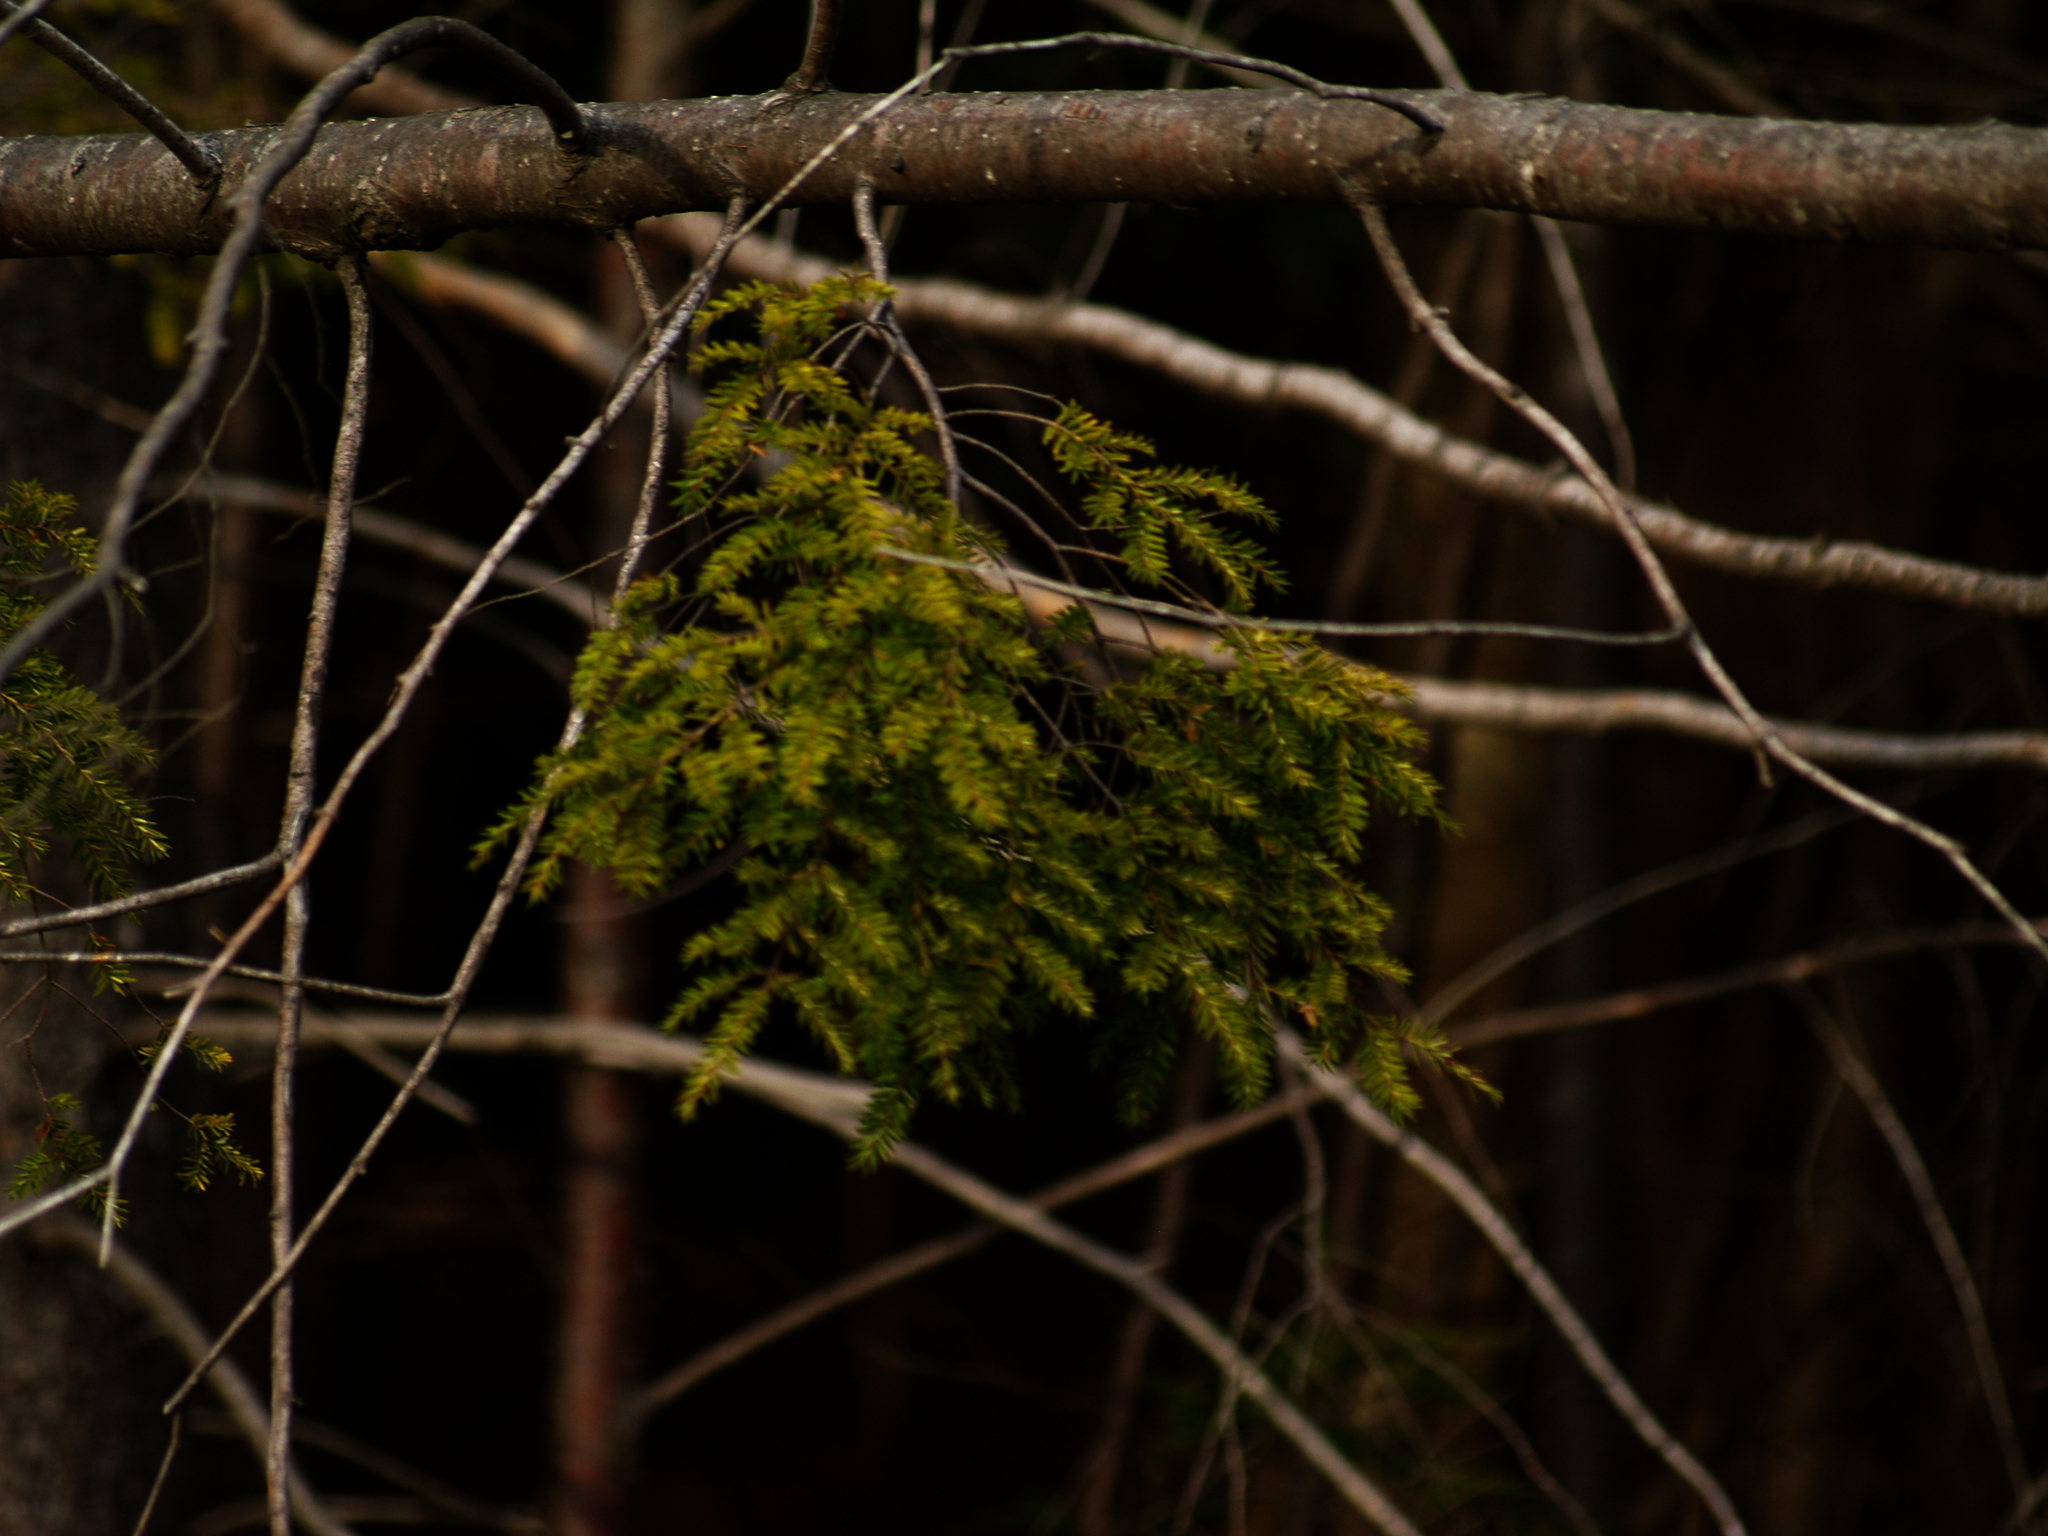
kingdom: Plantae
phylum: Tracheophyta
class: Pinopsida
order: Pinales
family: Pinaceae
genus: Tsuga
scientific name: Tsuga canadensis
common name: Eastern hemlock
